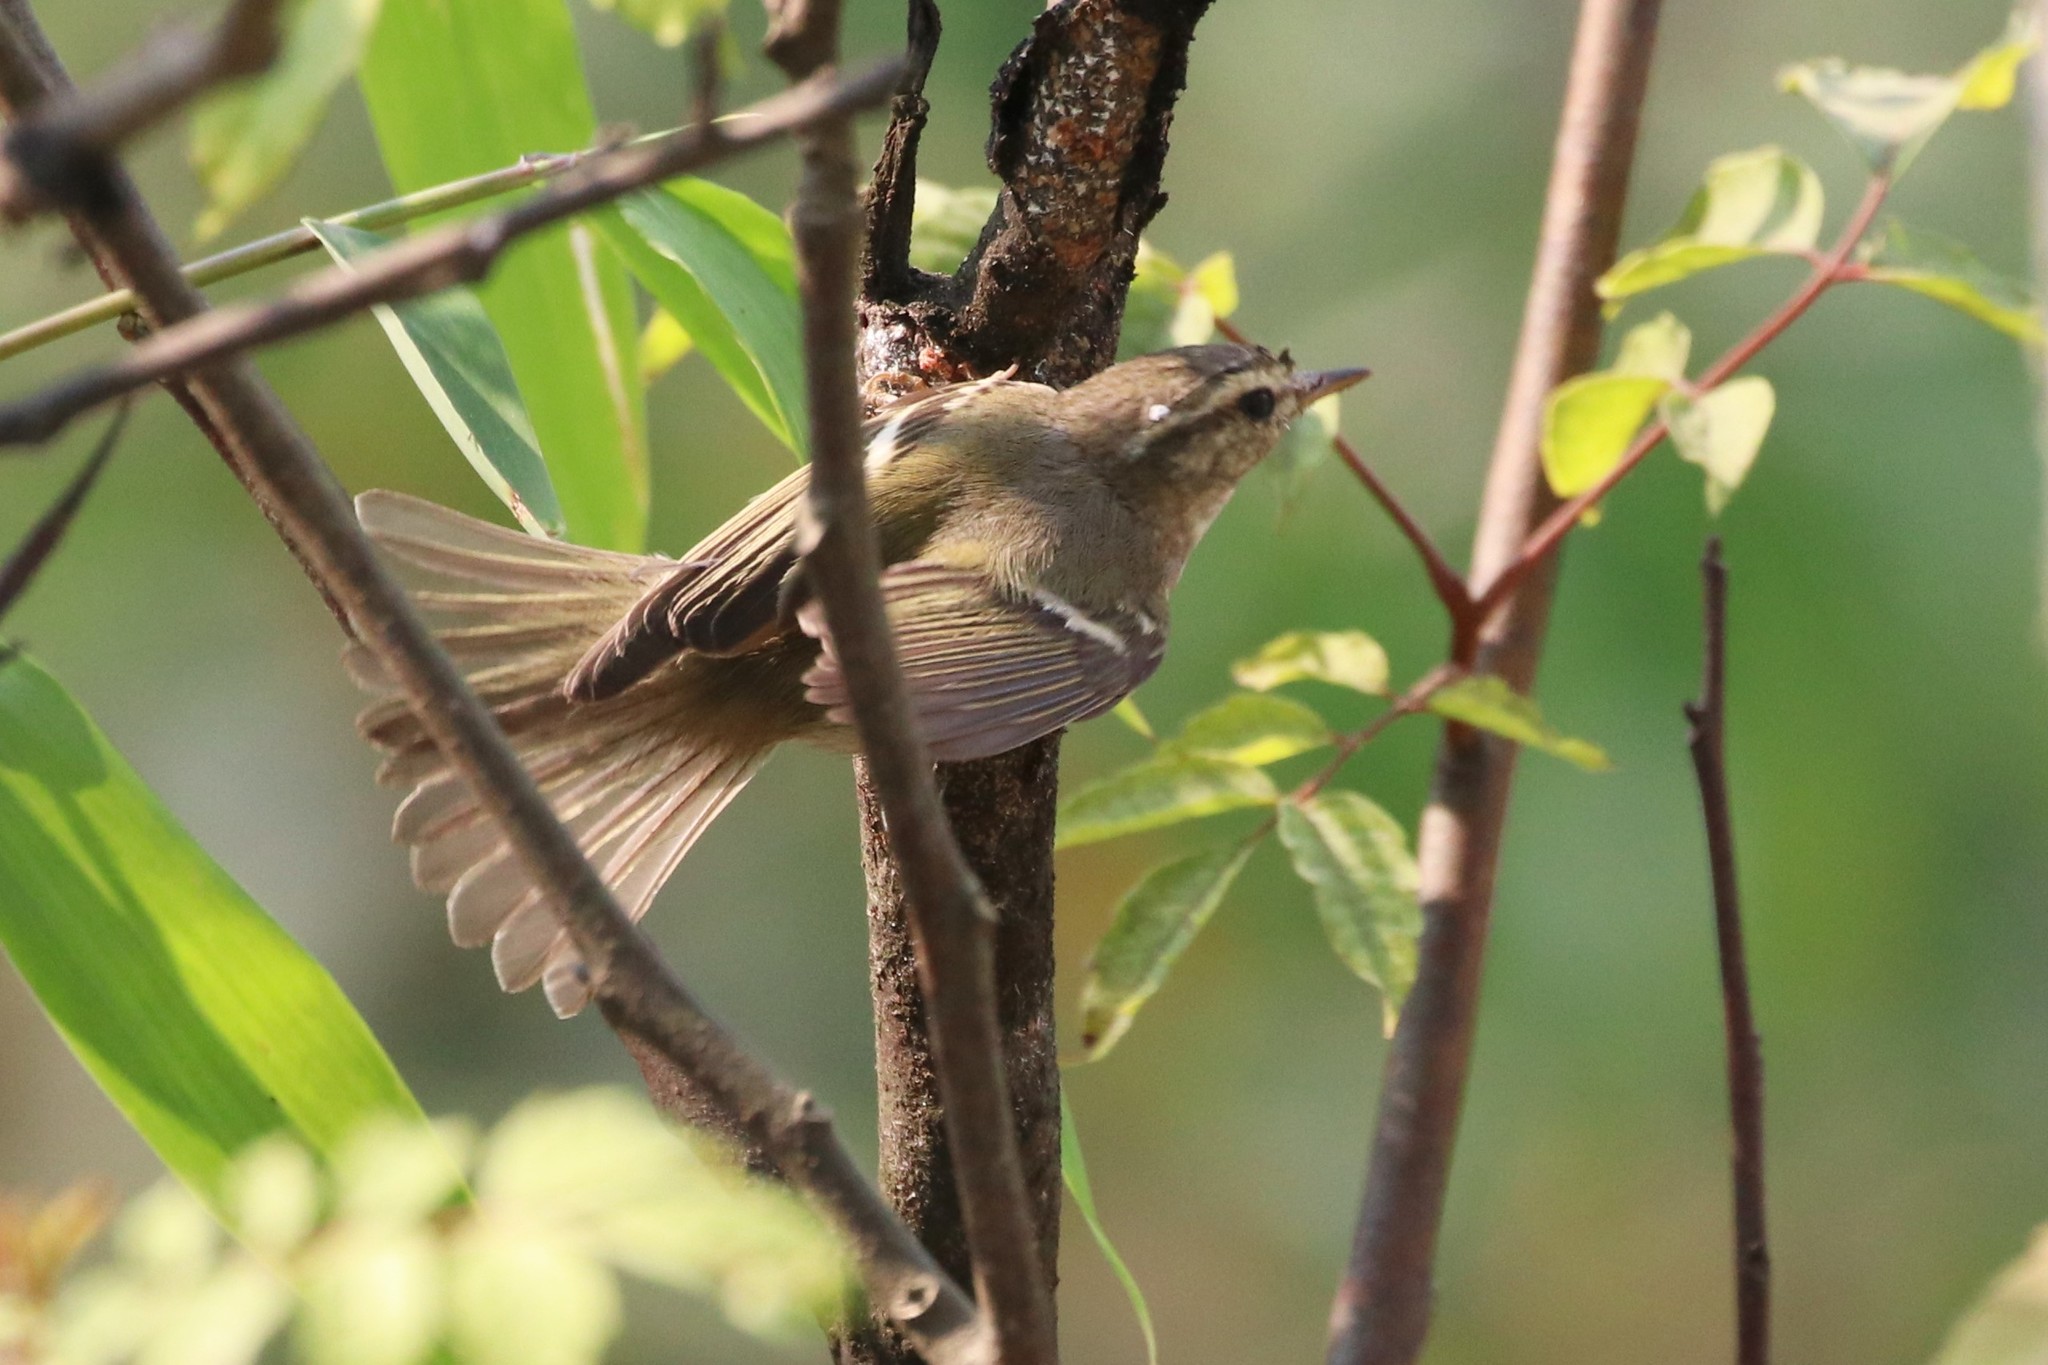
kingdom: Animalia
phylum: Chordata
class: Aves
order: Passeriformes
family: Phylloscopidae
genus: Phylloscopus
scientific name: Phylloscopus inornatus
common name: Yellow-browed warbler
